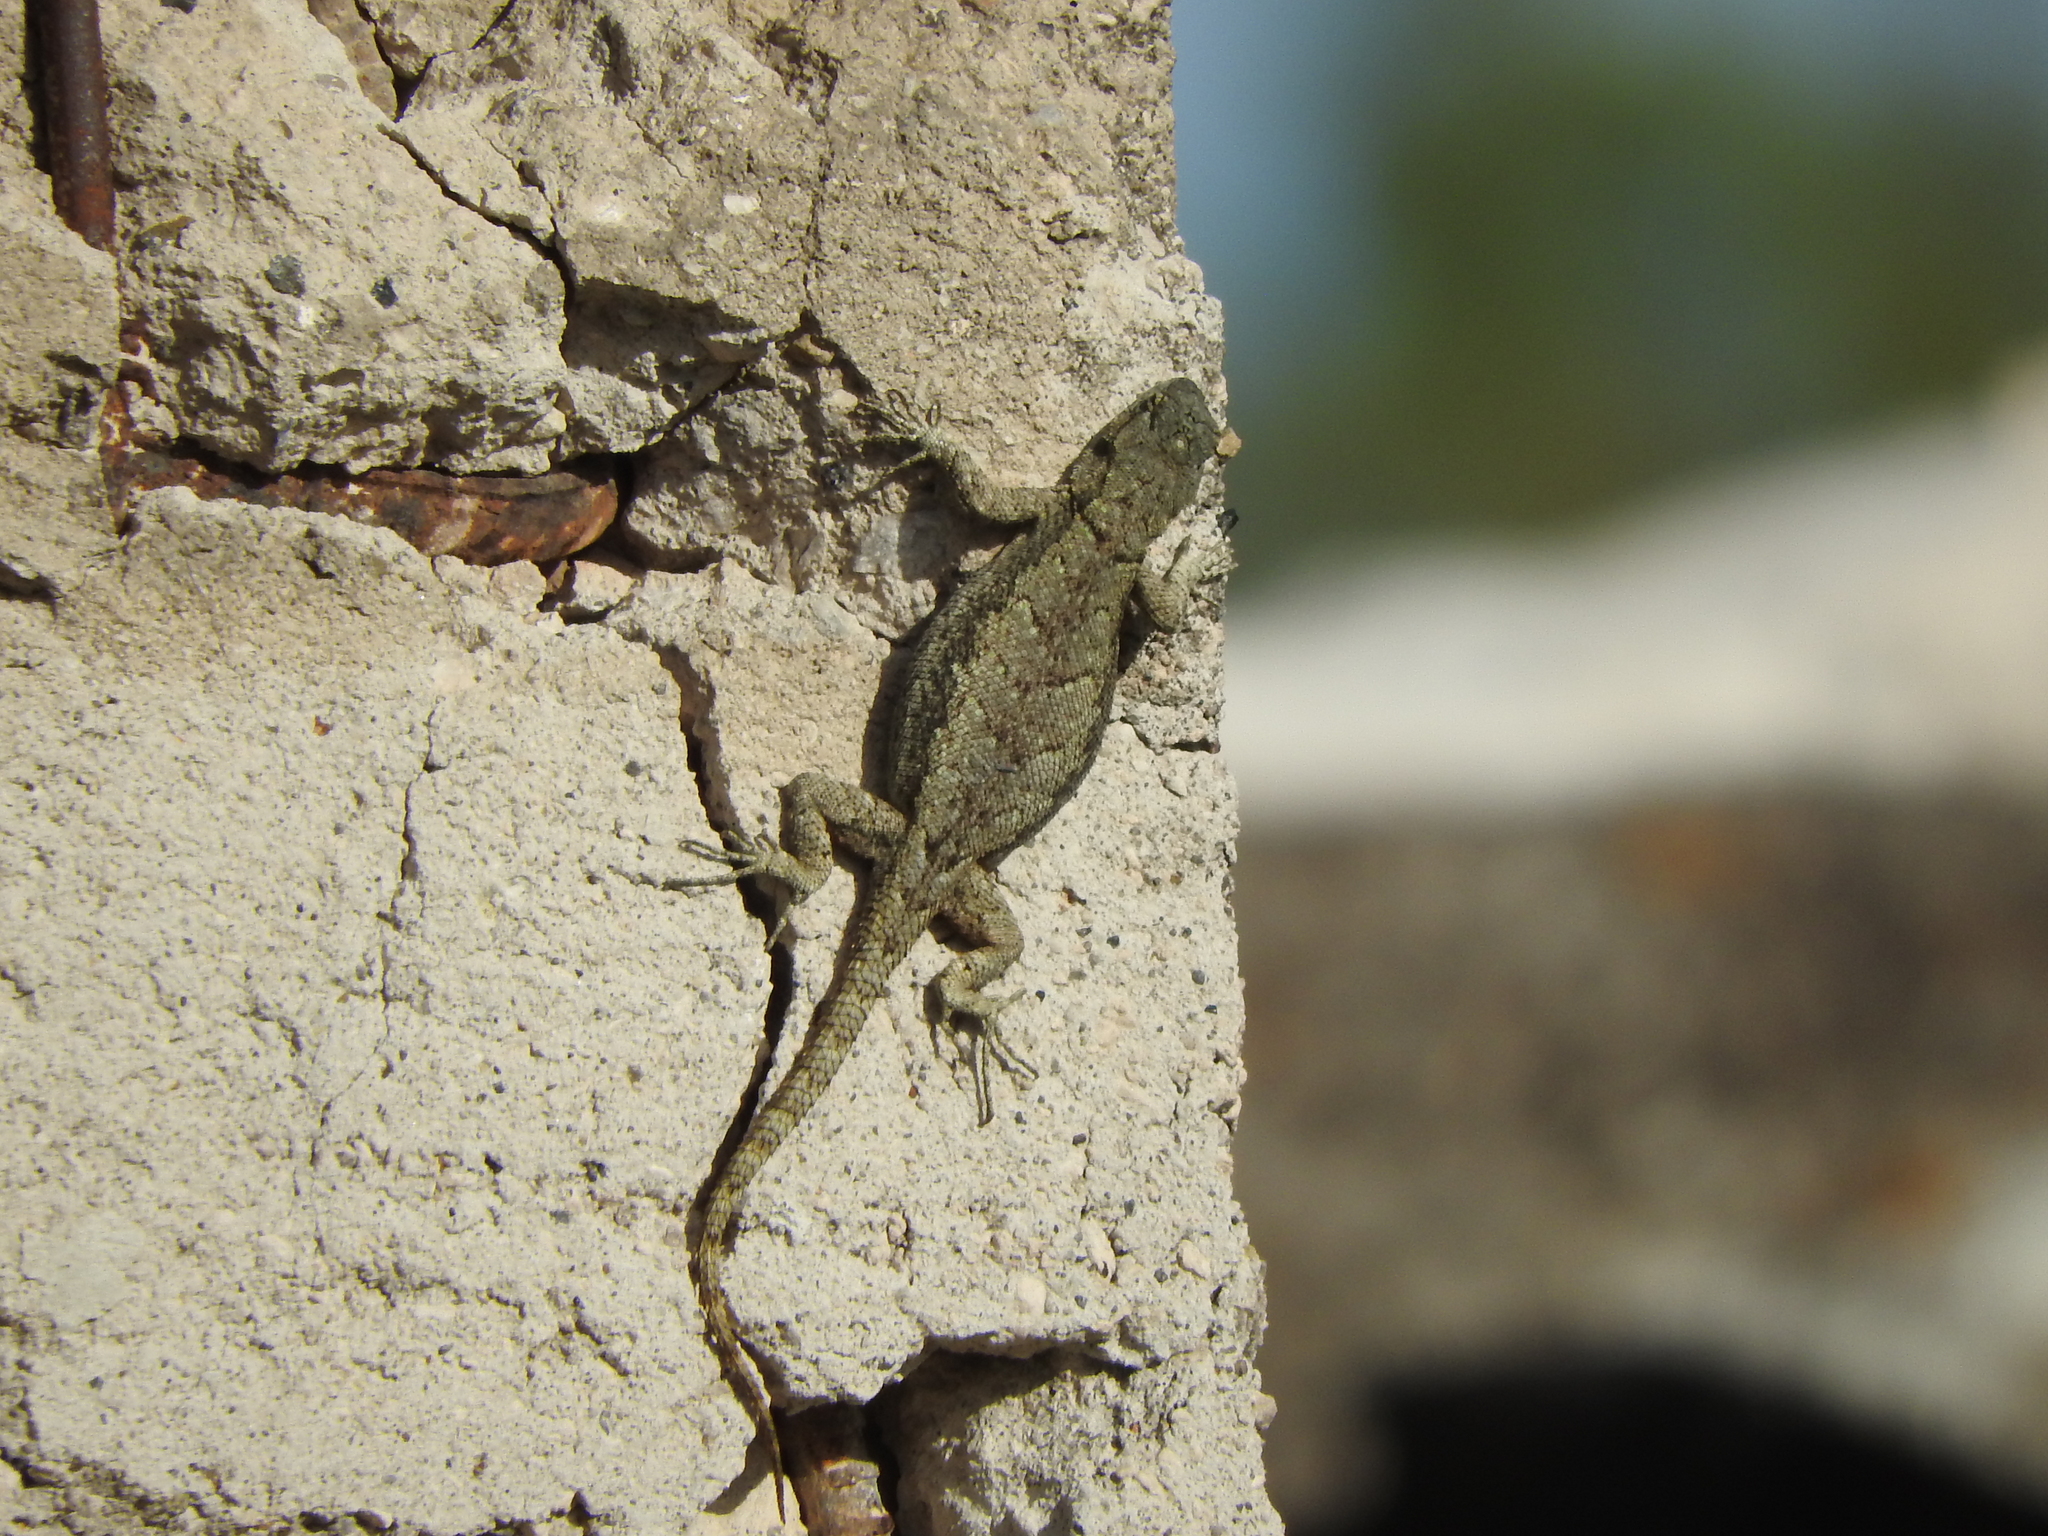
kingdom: Animalia
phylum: Chordata
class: Squamata
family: Phrynosomatidae
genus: Sceloporus
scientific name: Sceloporus grammicus
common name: Mesquite lizard
